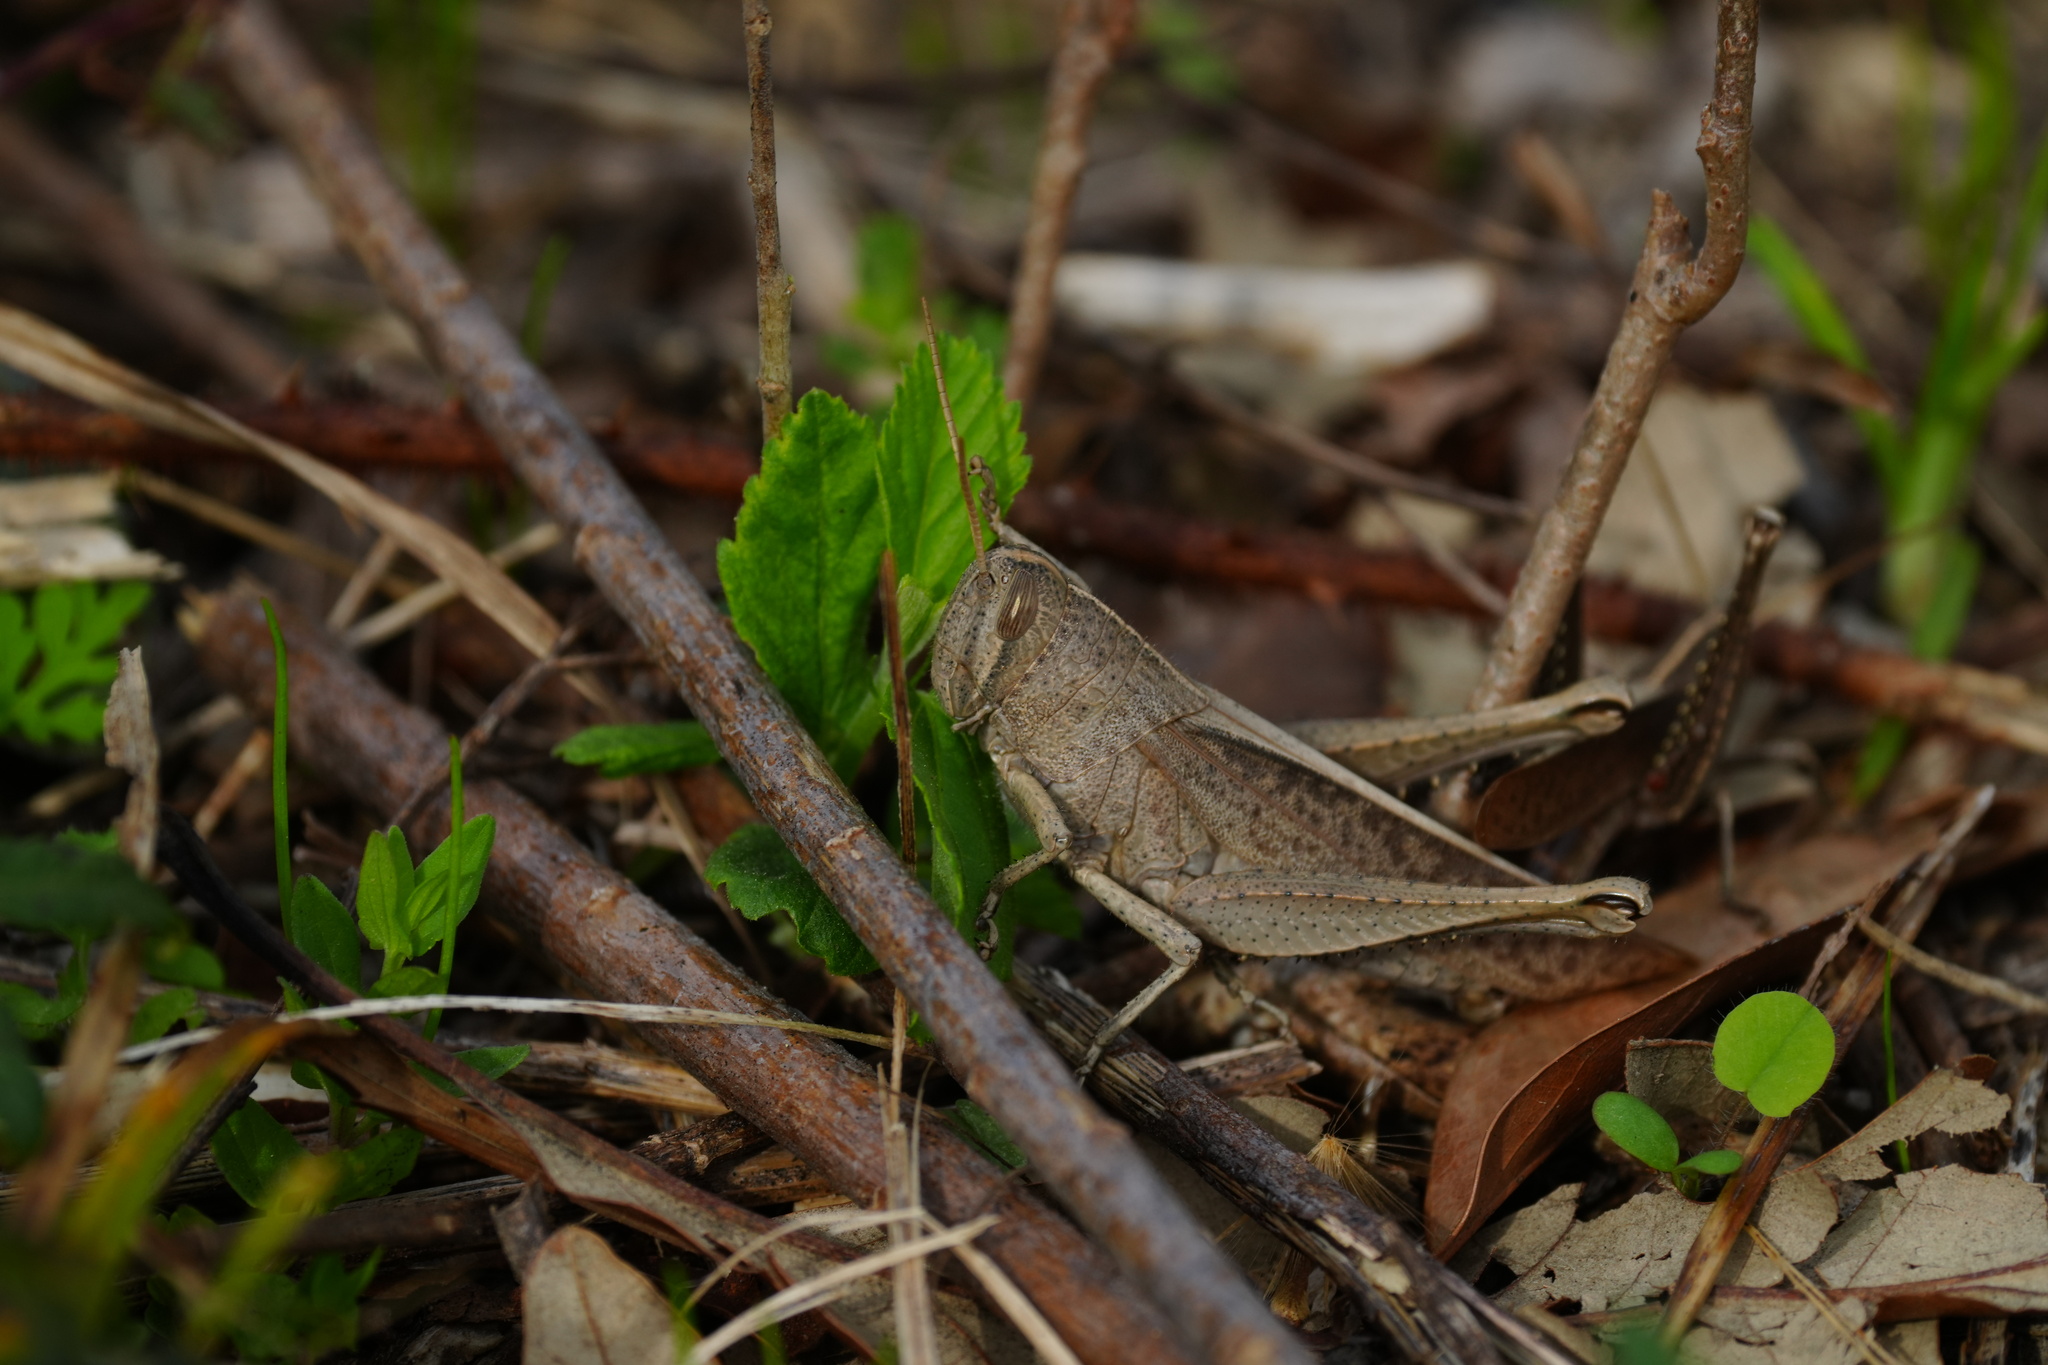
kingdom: Animalia
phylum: Arthropoda
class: Insecta
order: Orthoptera
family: Acrididae
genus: Schistocerca
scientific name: Schistocerca damnifica
